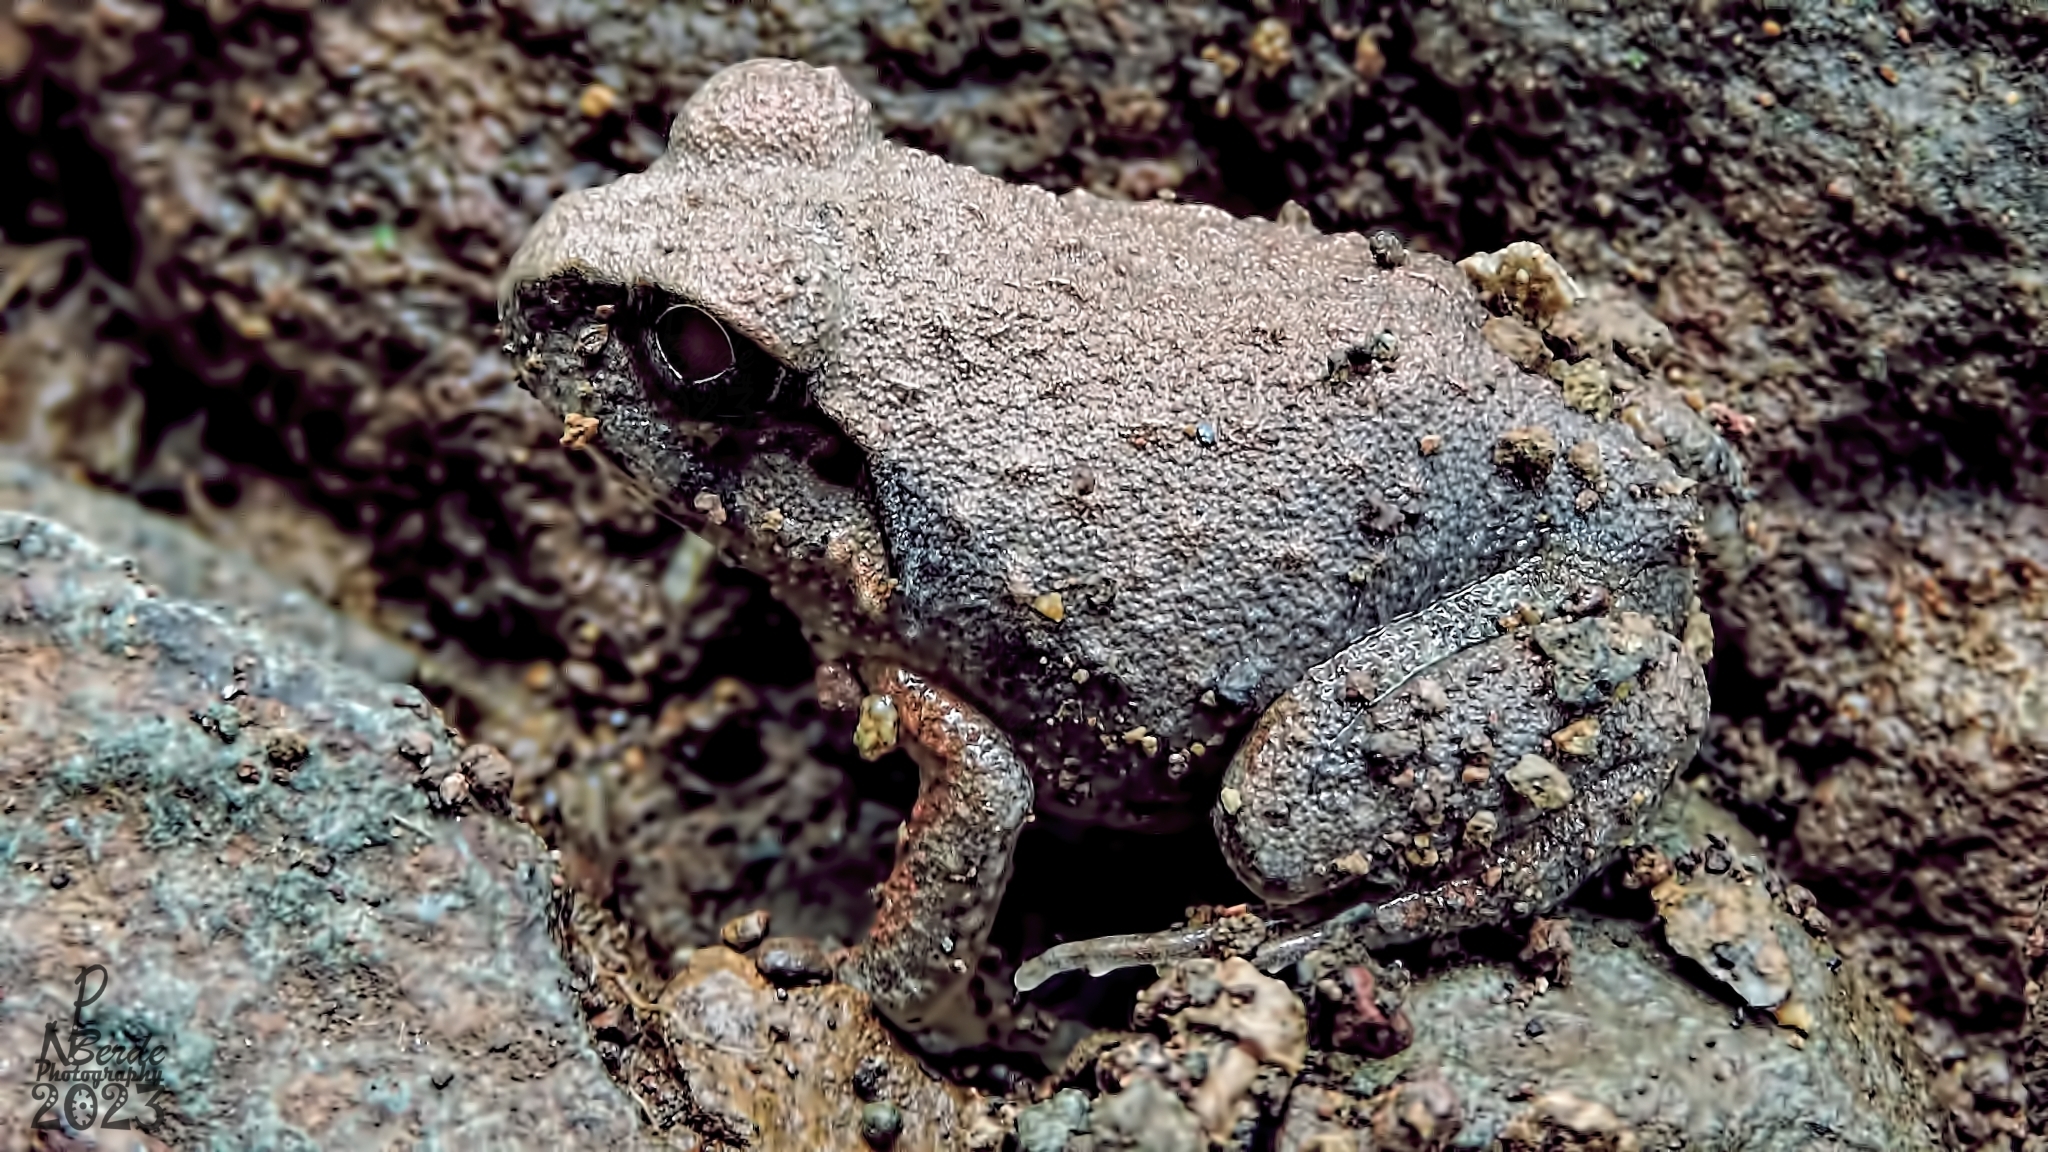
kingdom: Animalia
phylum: Chordata
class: Amphibia
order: Anura
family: Dicroglossidae
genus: Sphaerotheca
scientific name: Sphaerotheca maskeyi
